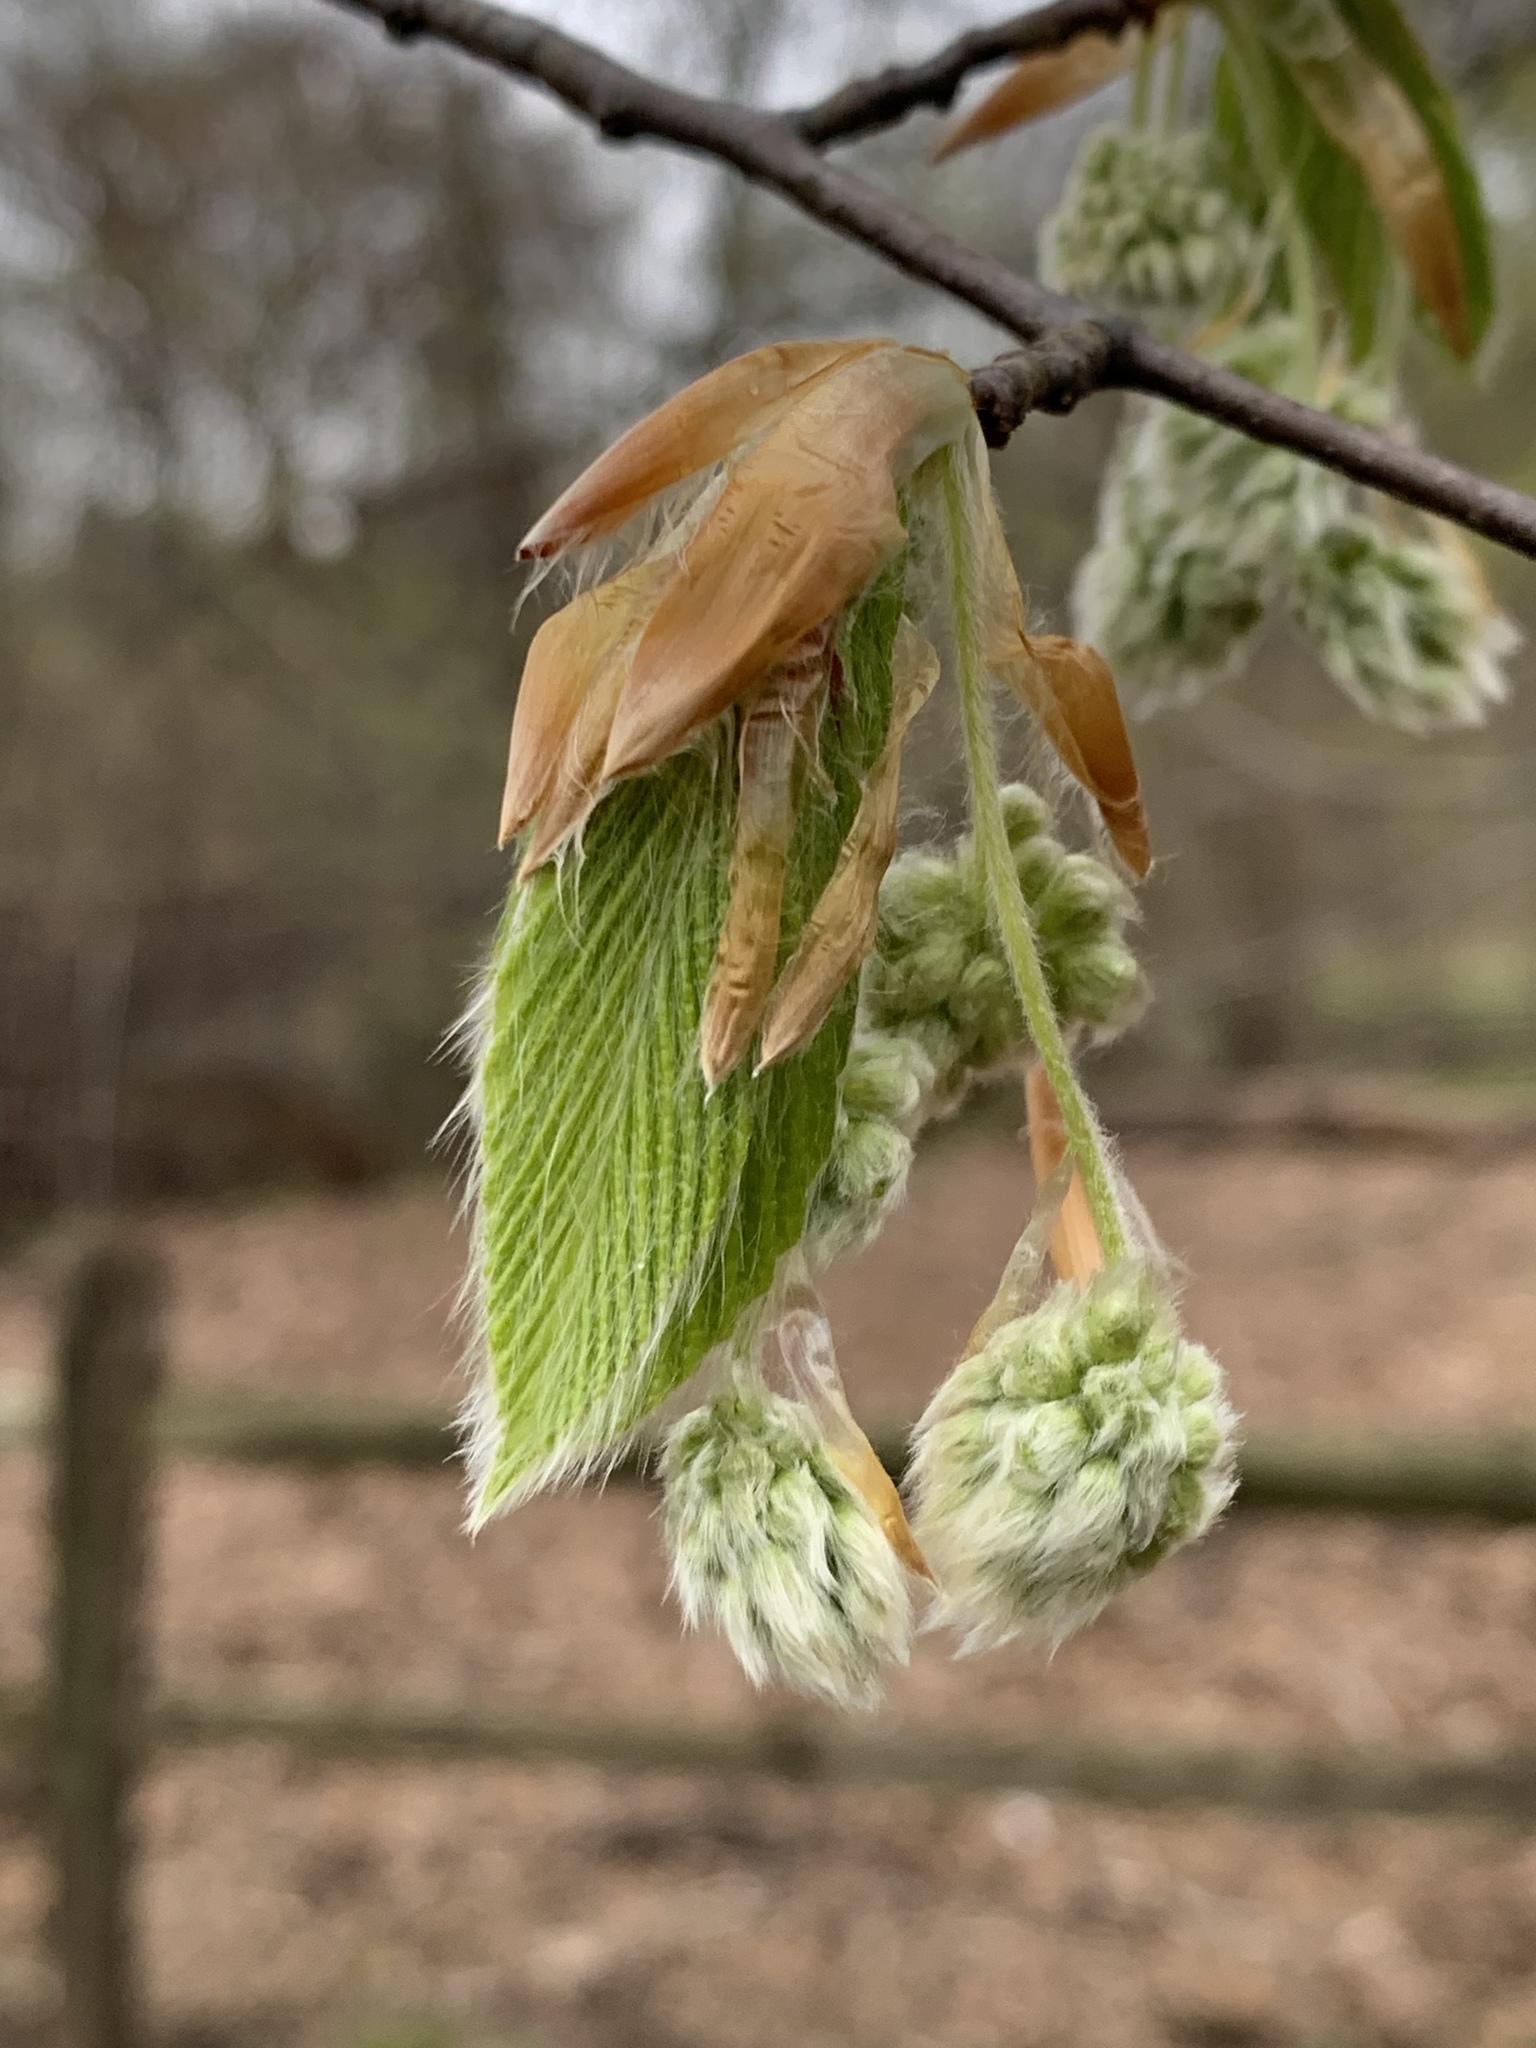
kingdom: Plantae
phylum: Tracheophyta
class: Magnoliopsida
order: Fagales
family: Fagaceae
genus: Fagus
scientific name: Fagus grandifolia
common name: American beech
